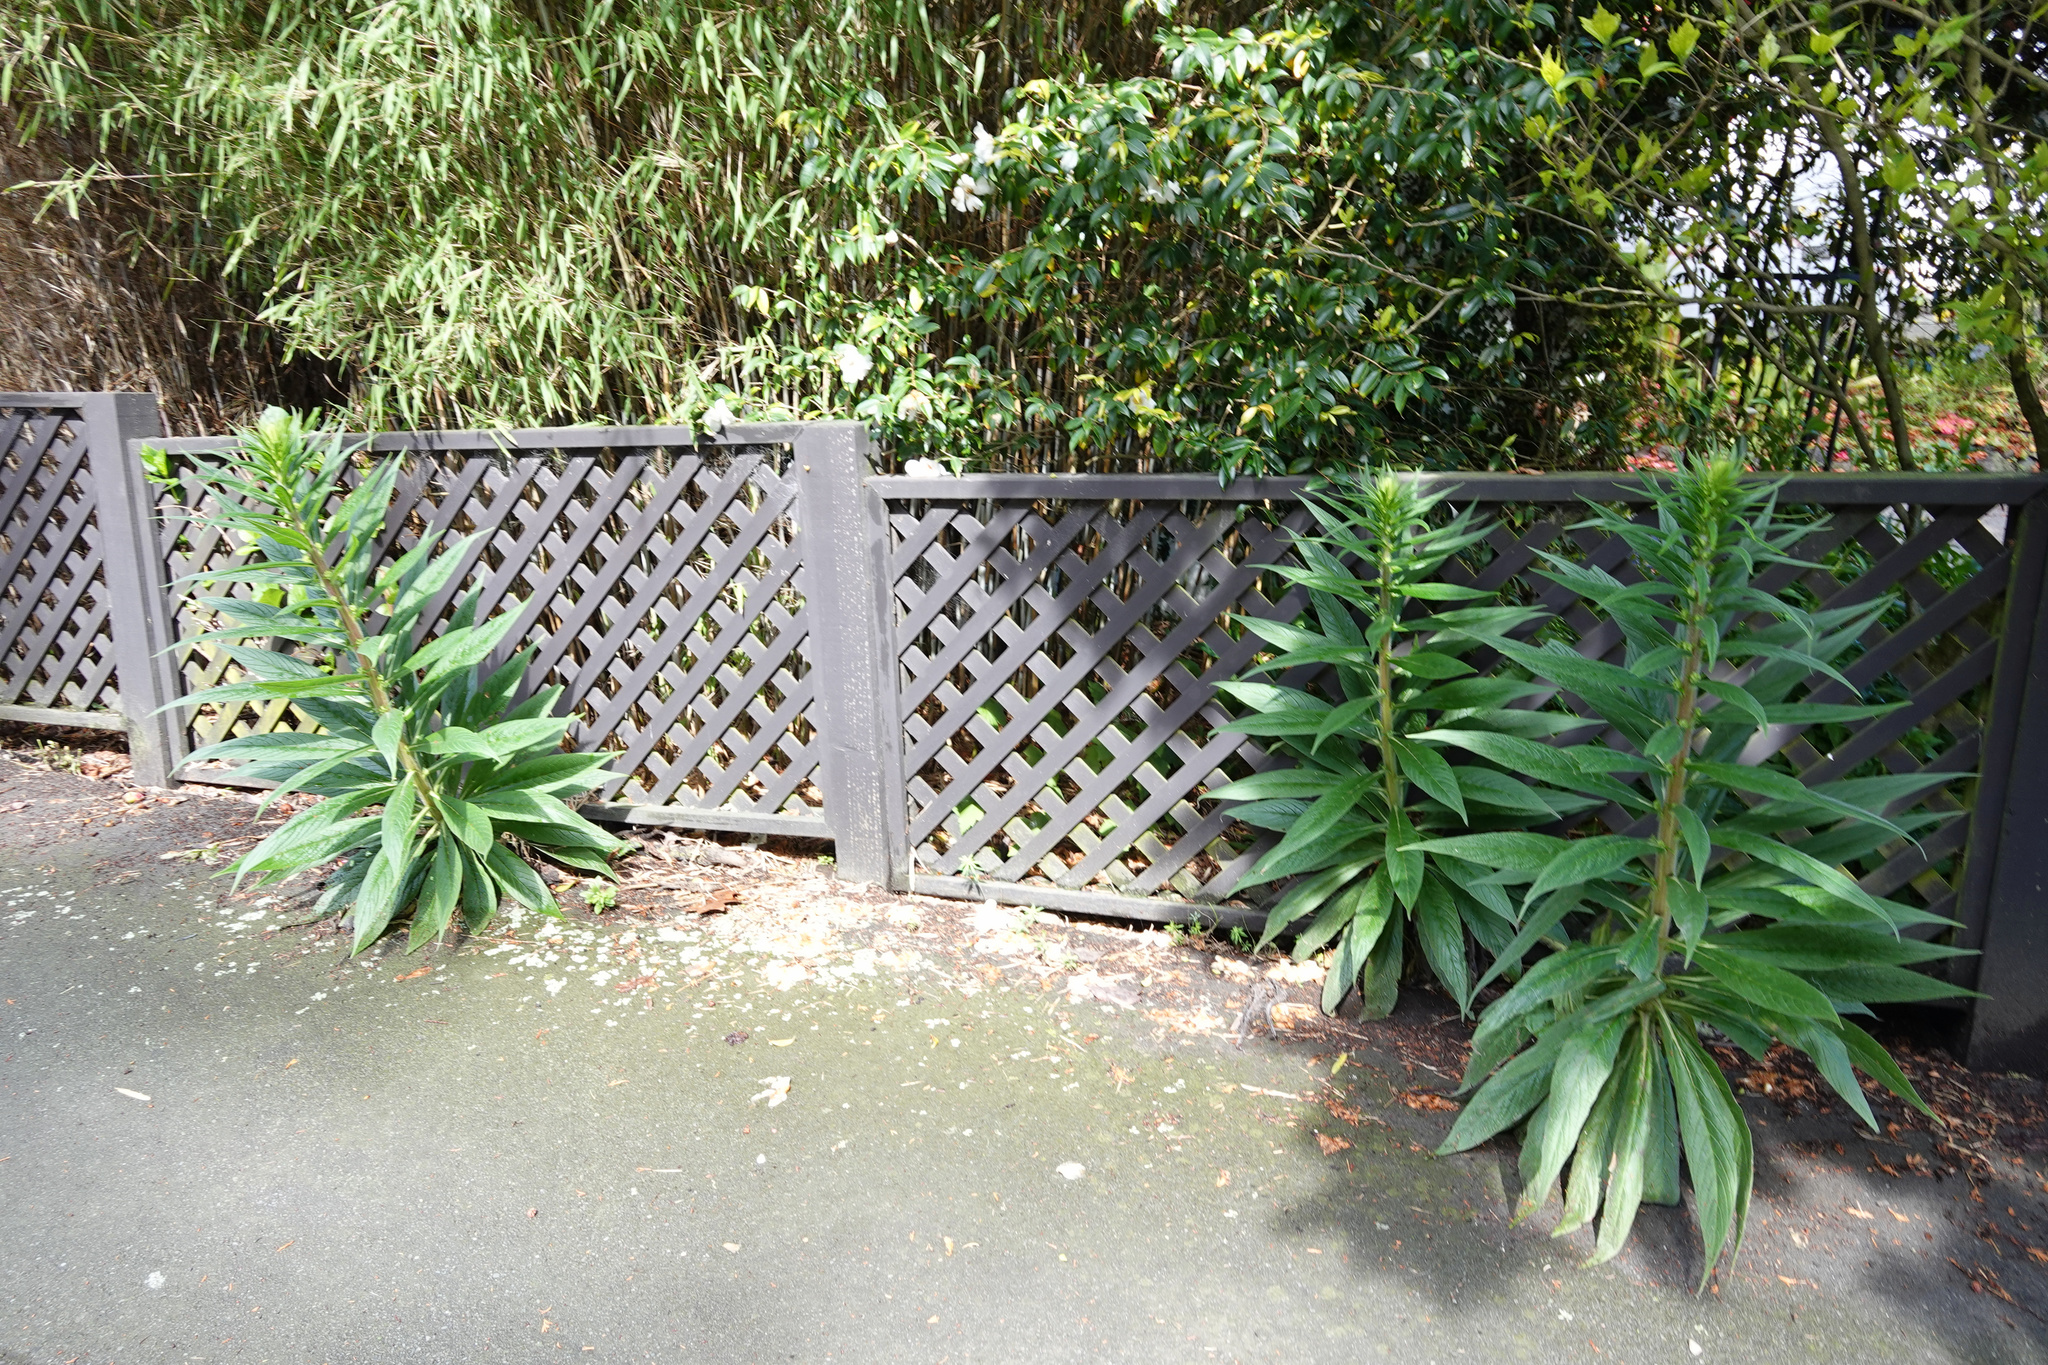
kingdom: Plantae
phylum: Tracheophyta
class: Magnoliopsida
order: Boraginales
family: Boraginaceae
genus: Echium
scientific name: Echium pininana
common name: Giant viper's-bugloss
